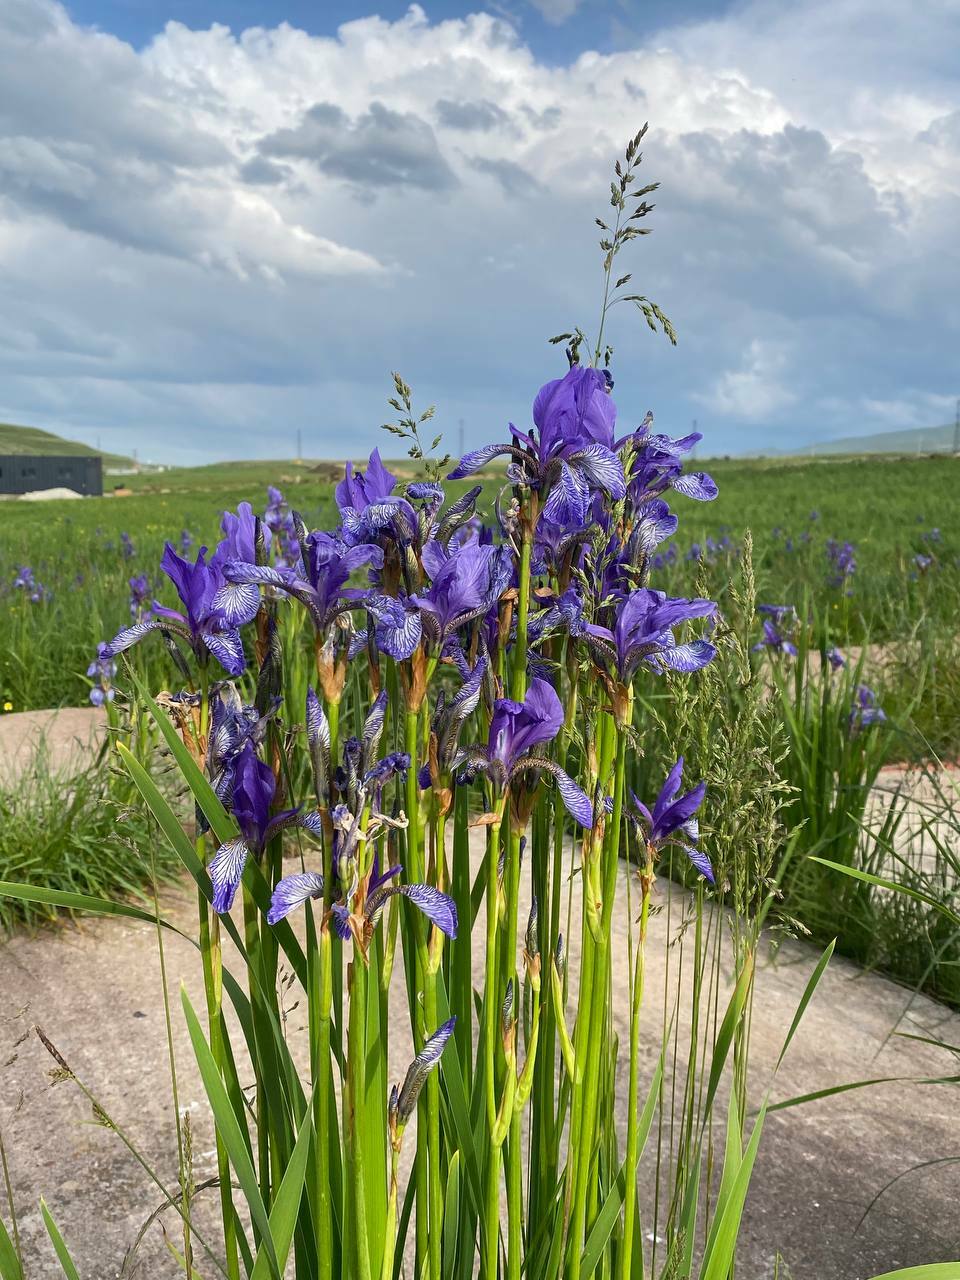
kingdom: Plantae
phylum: Tracheophyta
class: Liliopsida
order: Asparagales
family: Iridaceae
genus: Iris
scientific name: Iris sibirica
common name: Siberian iris
